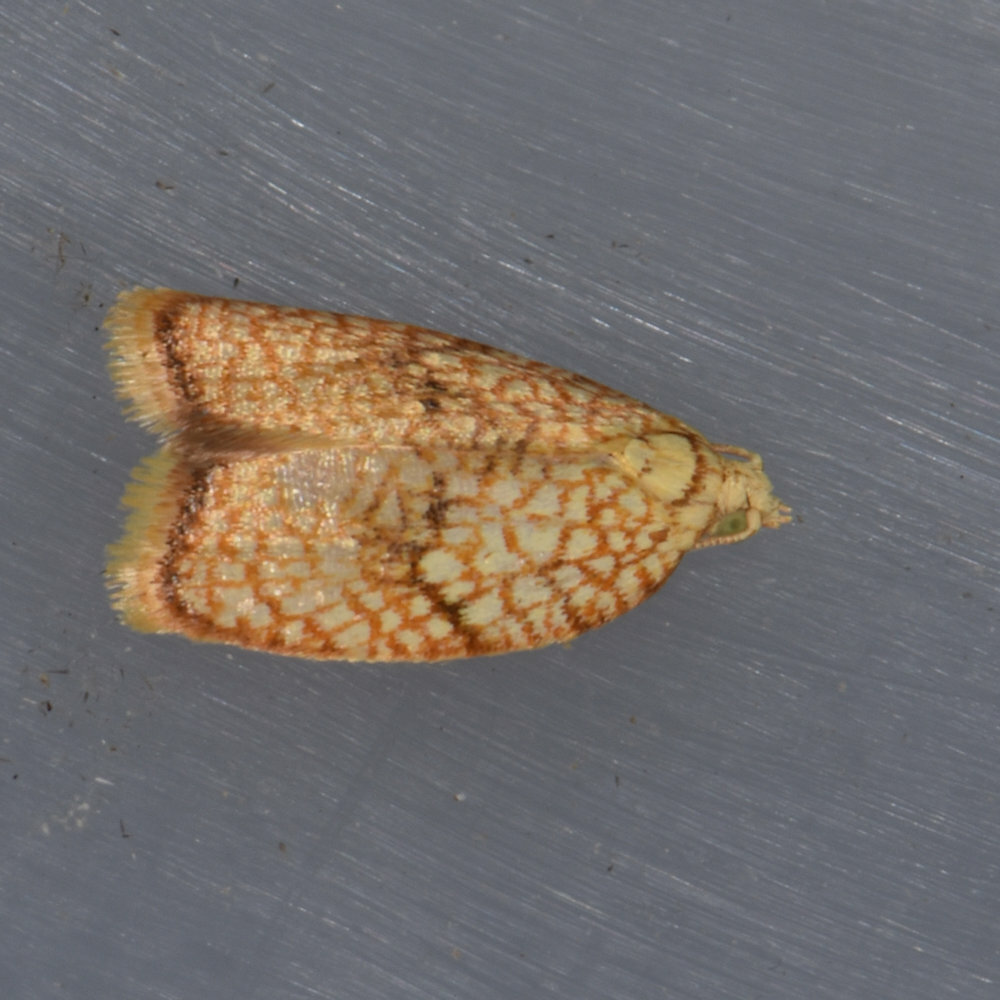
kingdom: Animalia
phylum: Arthropoda
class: Insecta
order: Lepidoptera
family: Tortricidae
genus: Acleris
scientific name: Acleris forsskaleana
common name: Maple button
